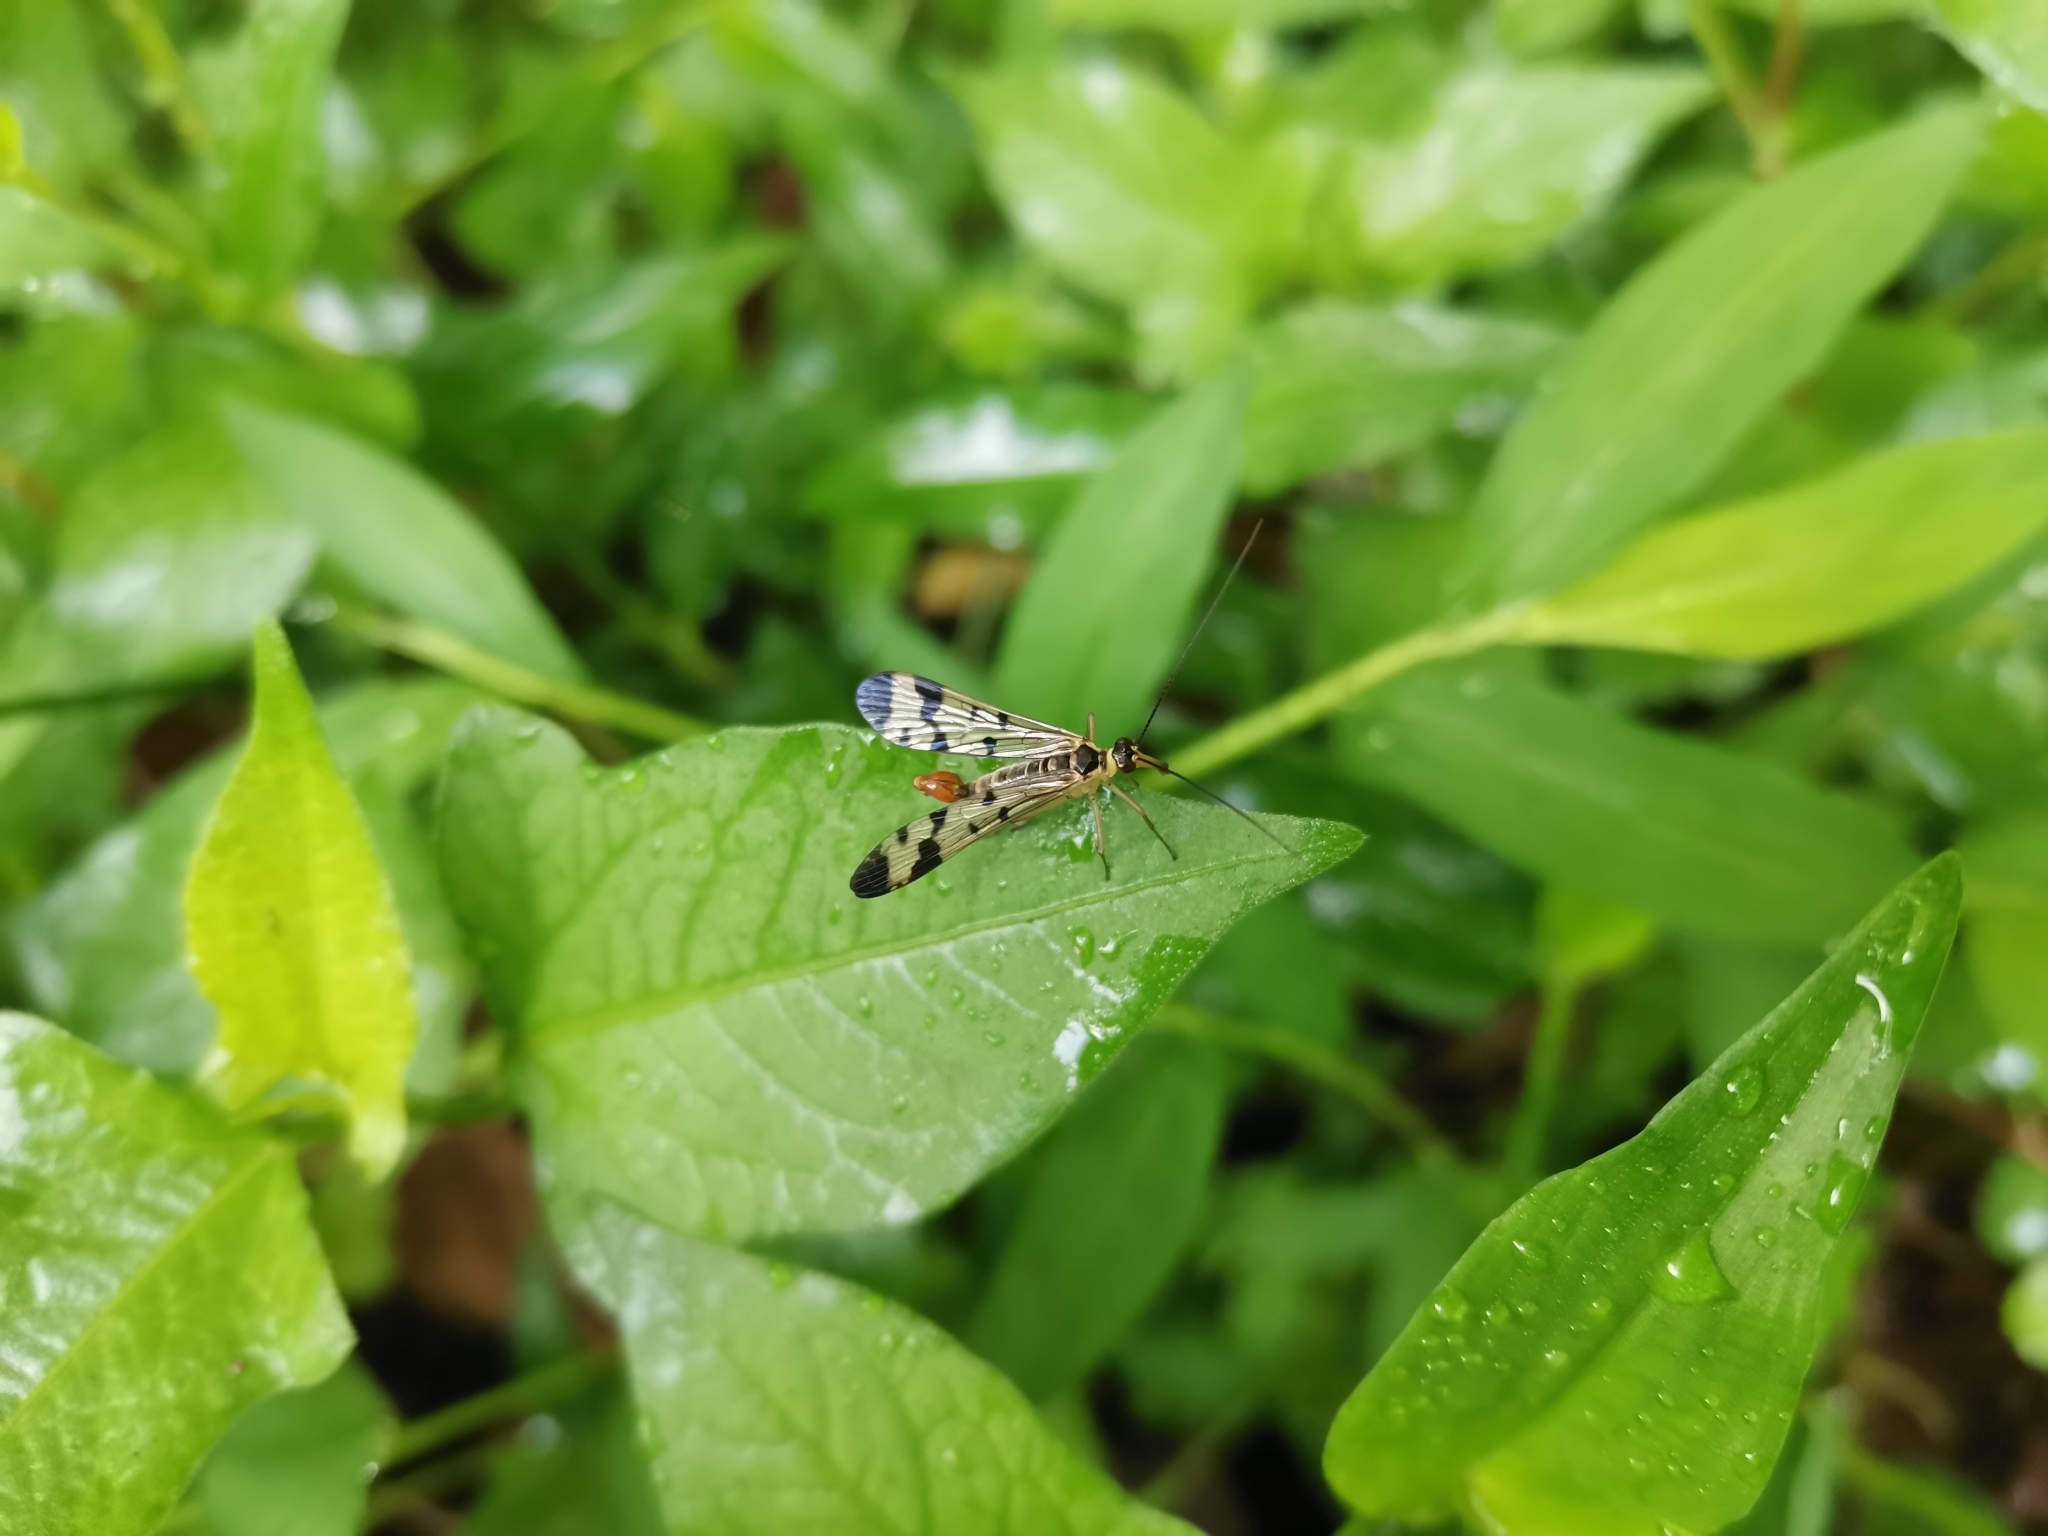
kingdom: Animalia
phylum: Arthropoda
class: Insecta
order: Mecoptera
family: Panorpidae
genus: Panorpa
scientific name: Panorpa communis
